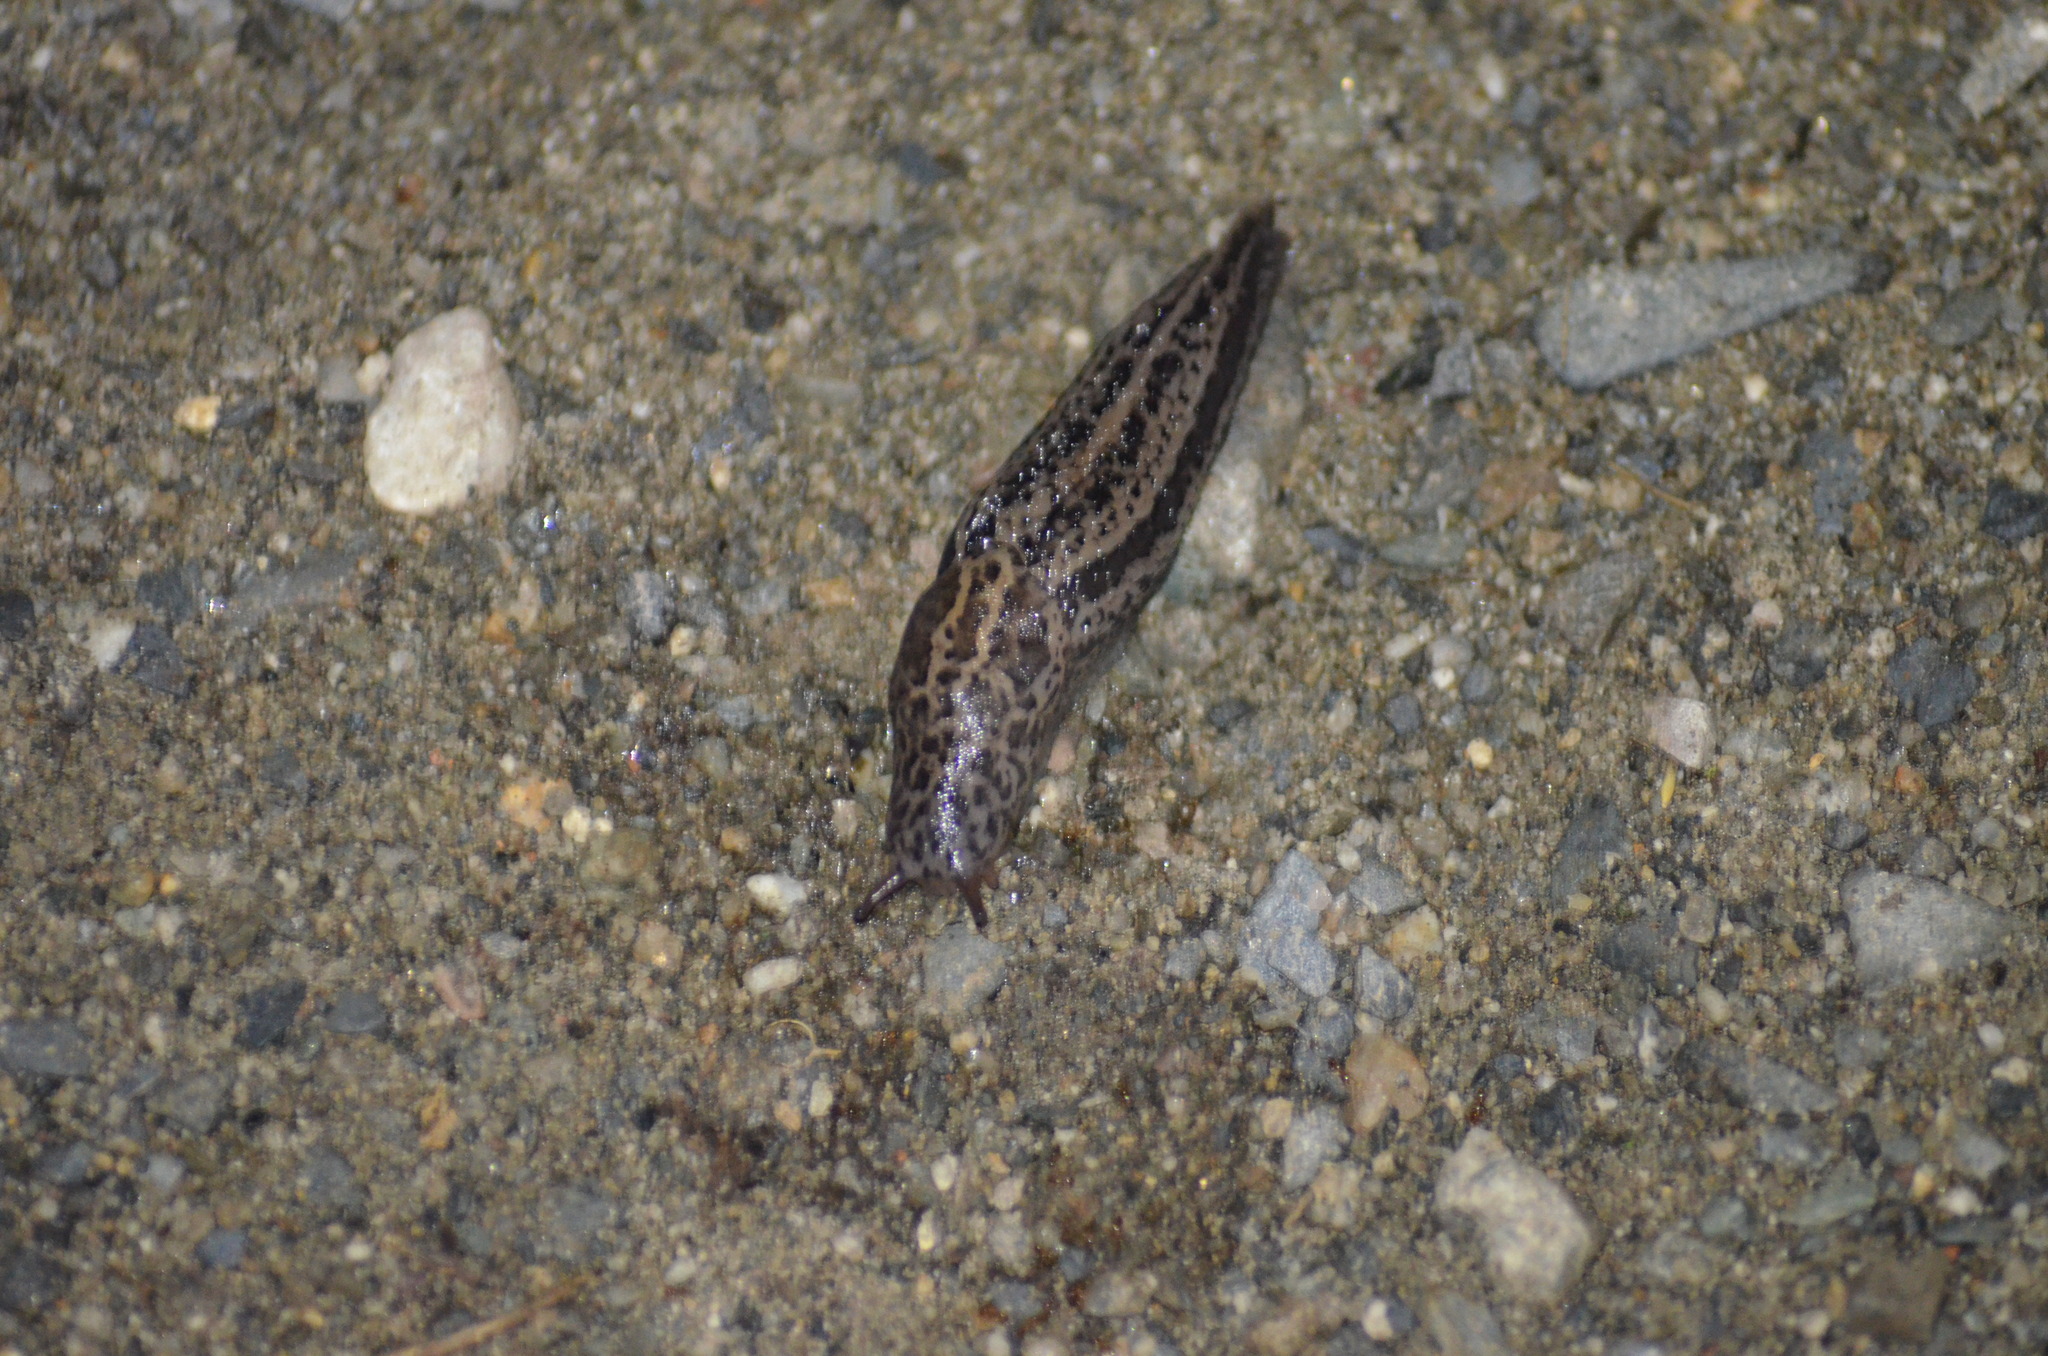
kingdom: Animalia
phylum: Mollusca
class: Gastropoda
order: Stylommatophora
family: Limacidae
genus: Limax
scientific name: Limax maximus
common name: Great grey slug
